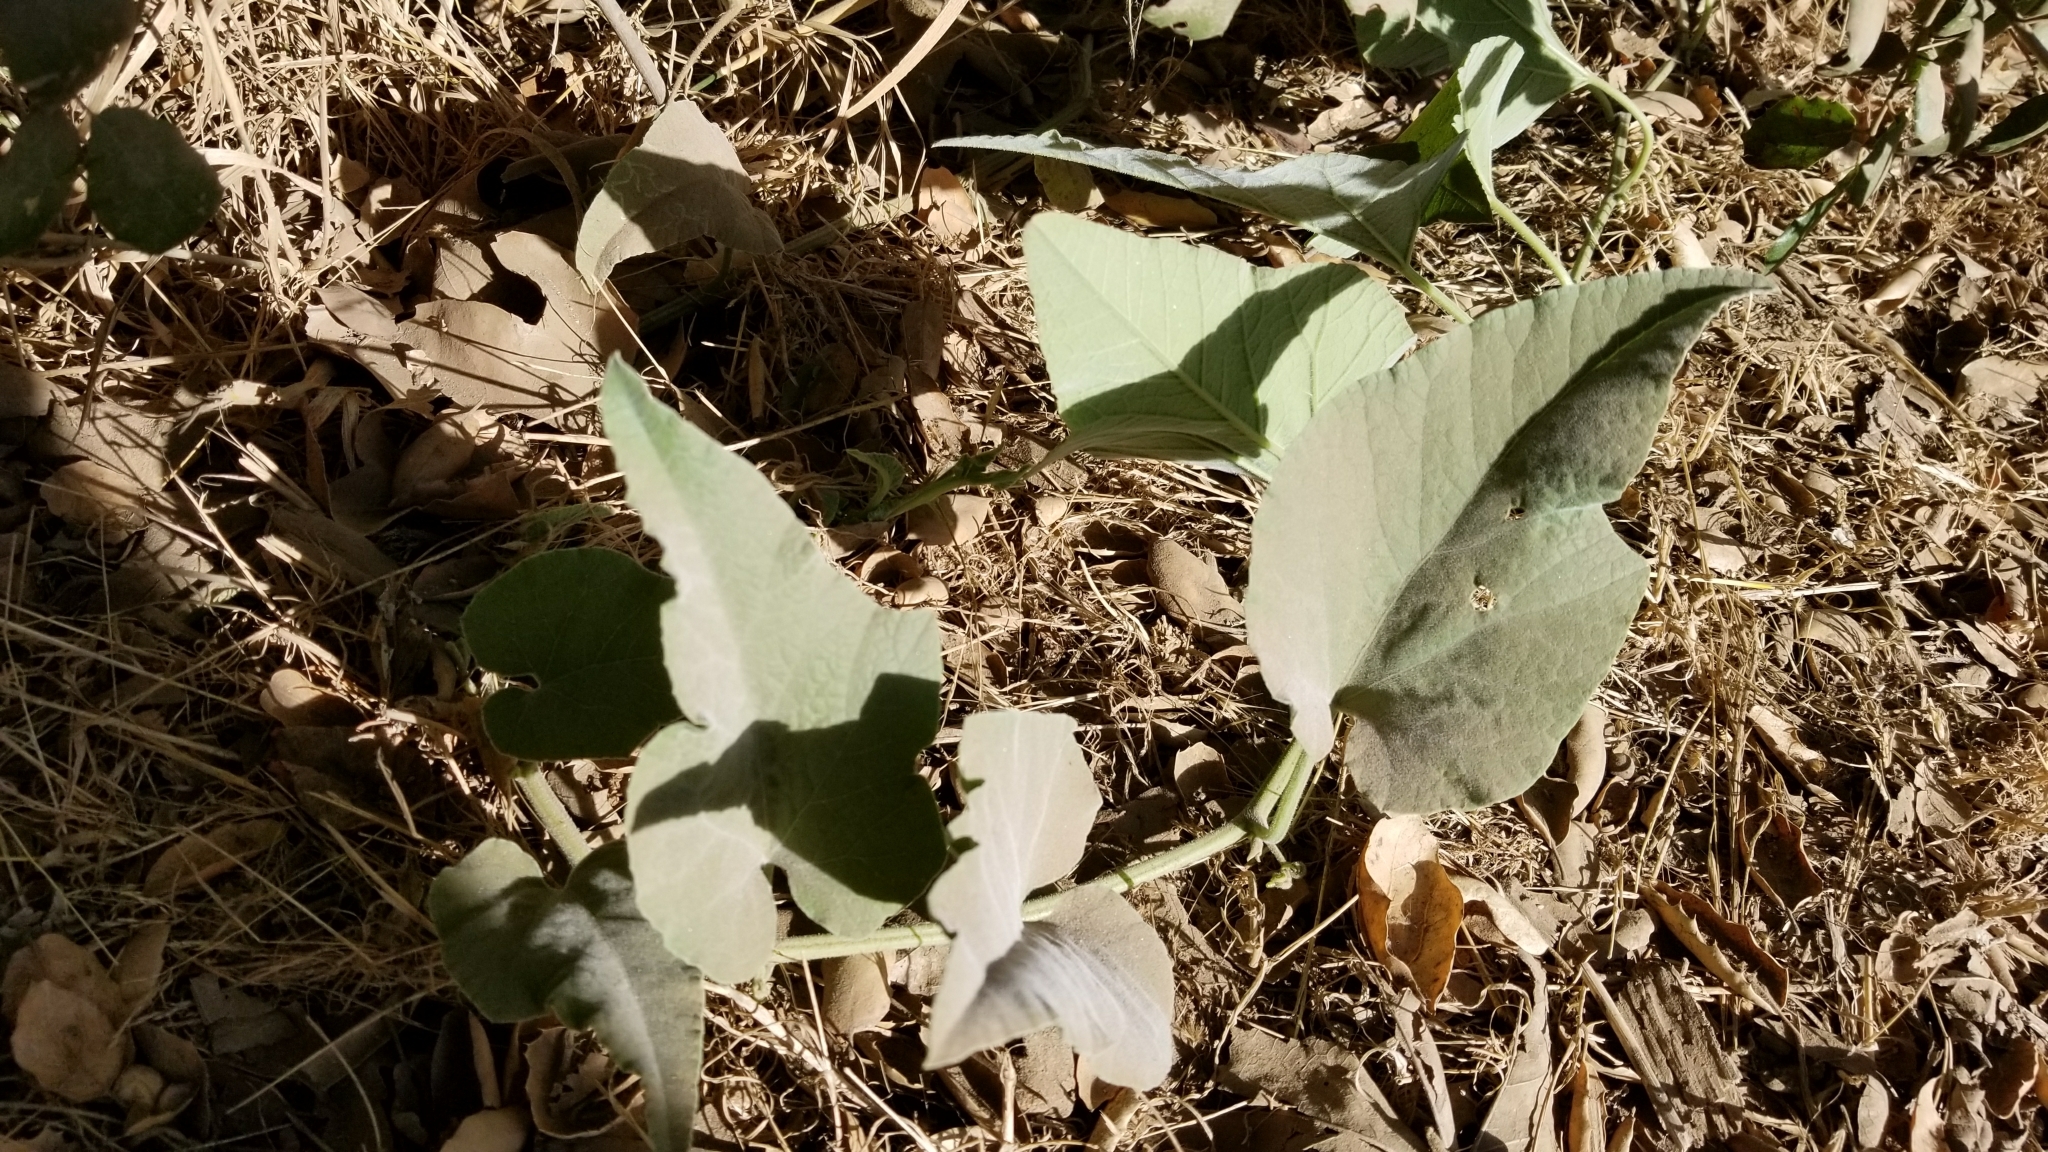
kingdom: Plantae
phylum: Tracheophyta
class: Magnoliopsida
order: Cucurbitales
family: Cucurbitaceae
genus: Cucurbita
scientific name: Cucurbita foetidissima
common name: Buffalo gourd
